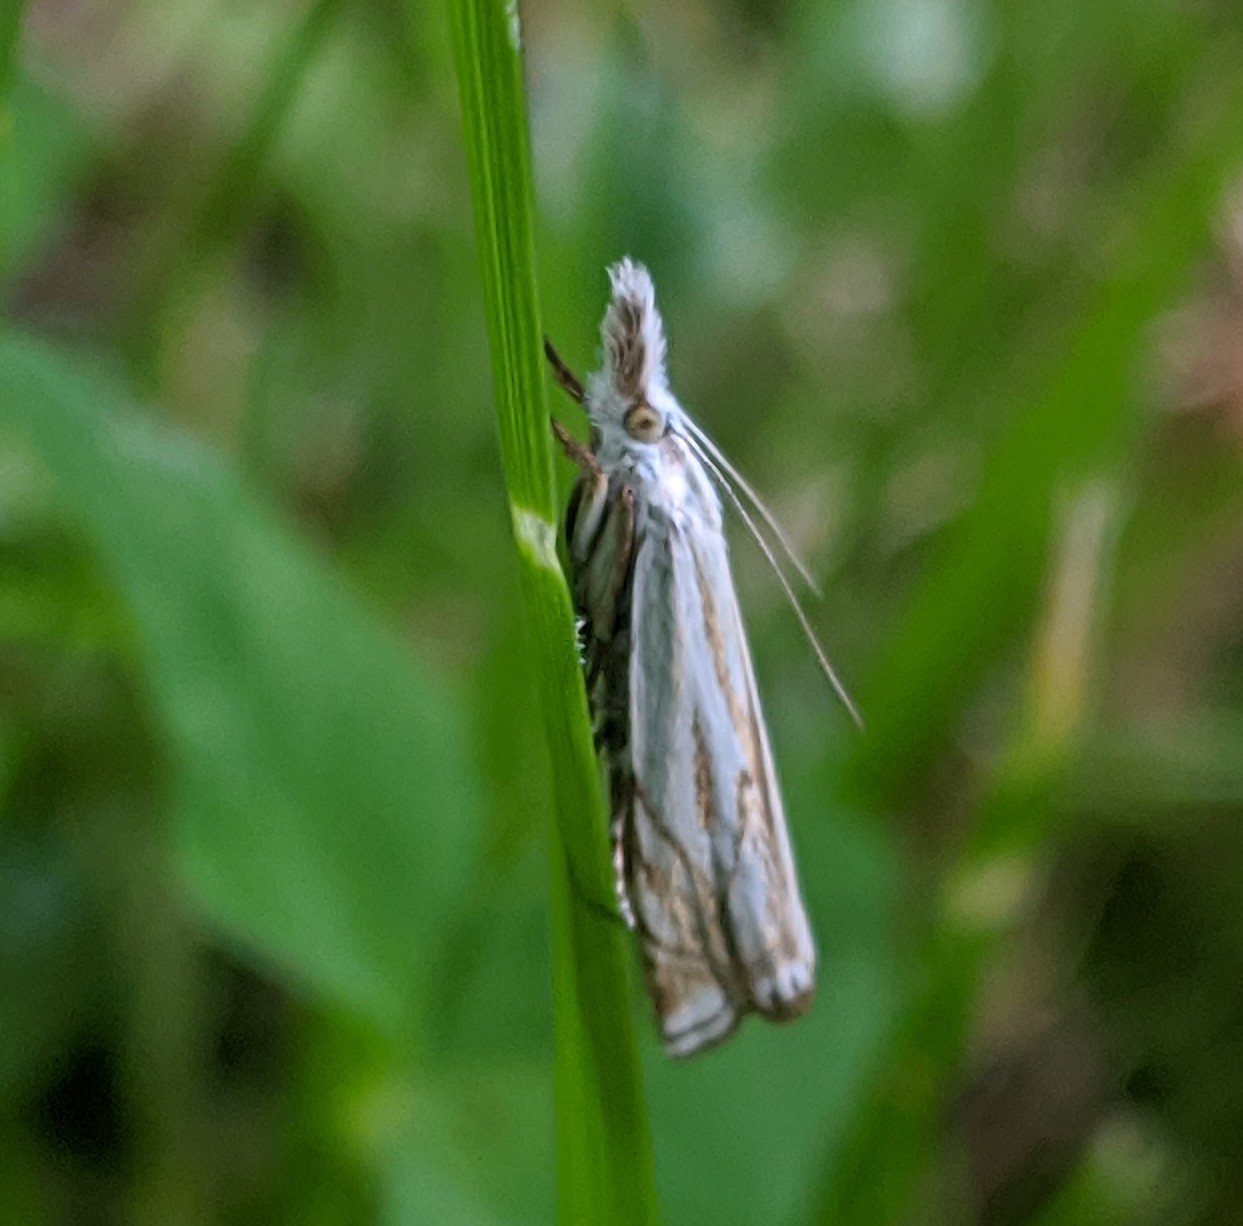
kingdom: Animalia
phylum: Arthropoda
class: Insecta
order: Lepidoptera
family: Crambidae
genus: Crambus
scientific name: Crambus nemorella
